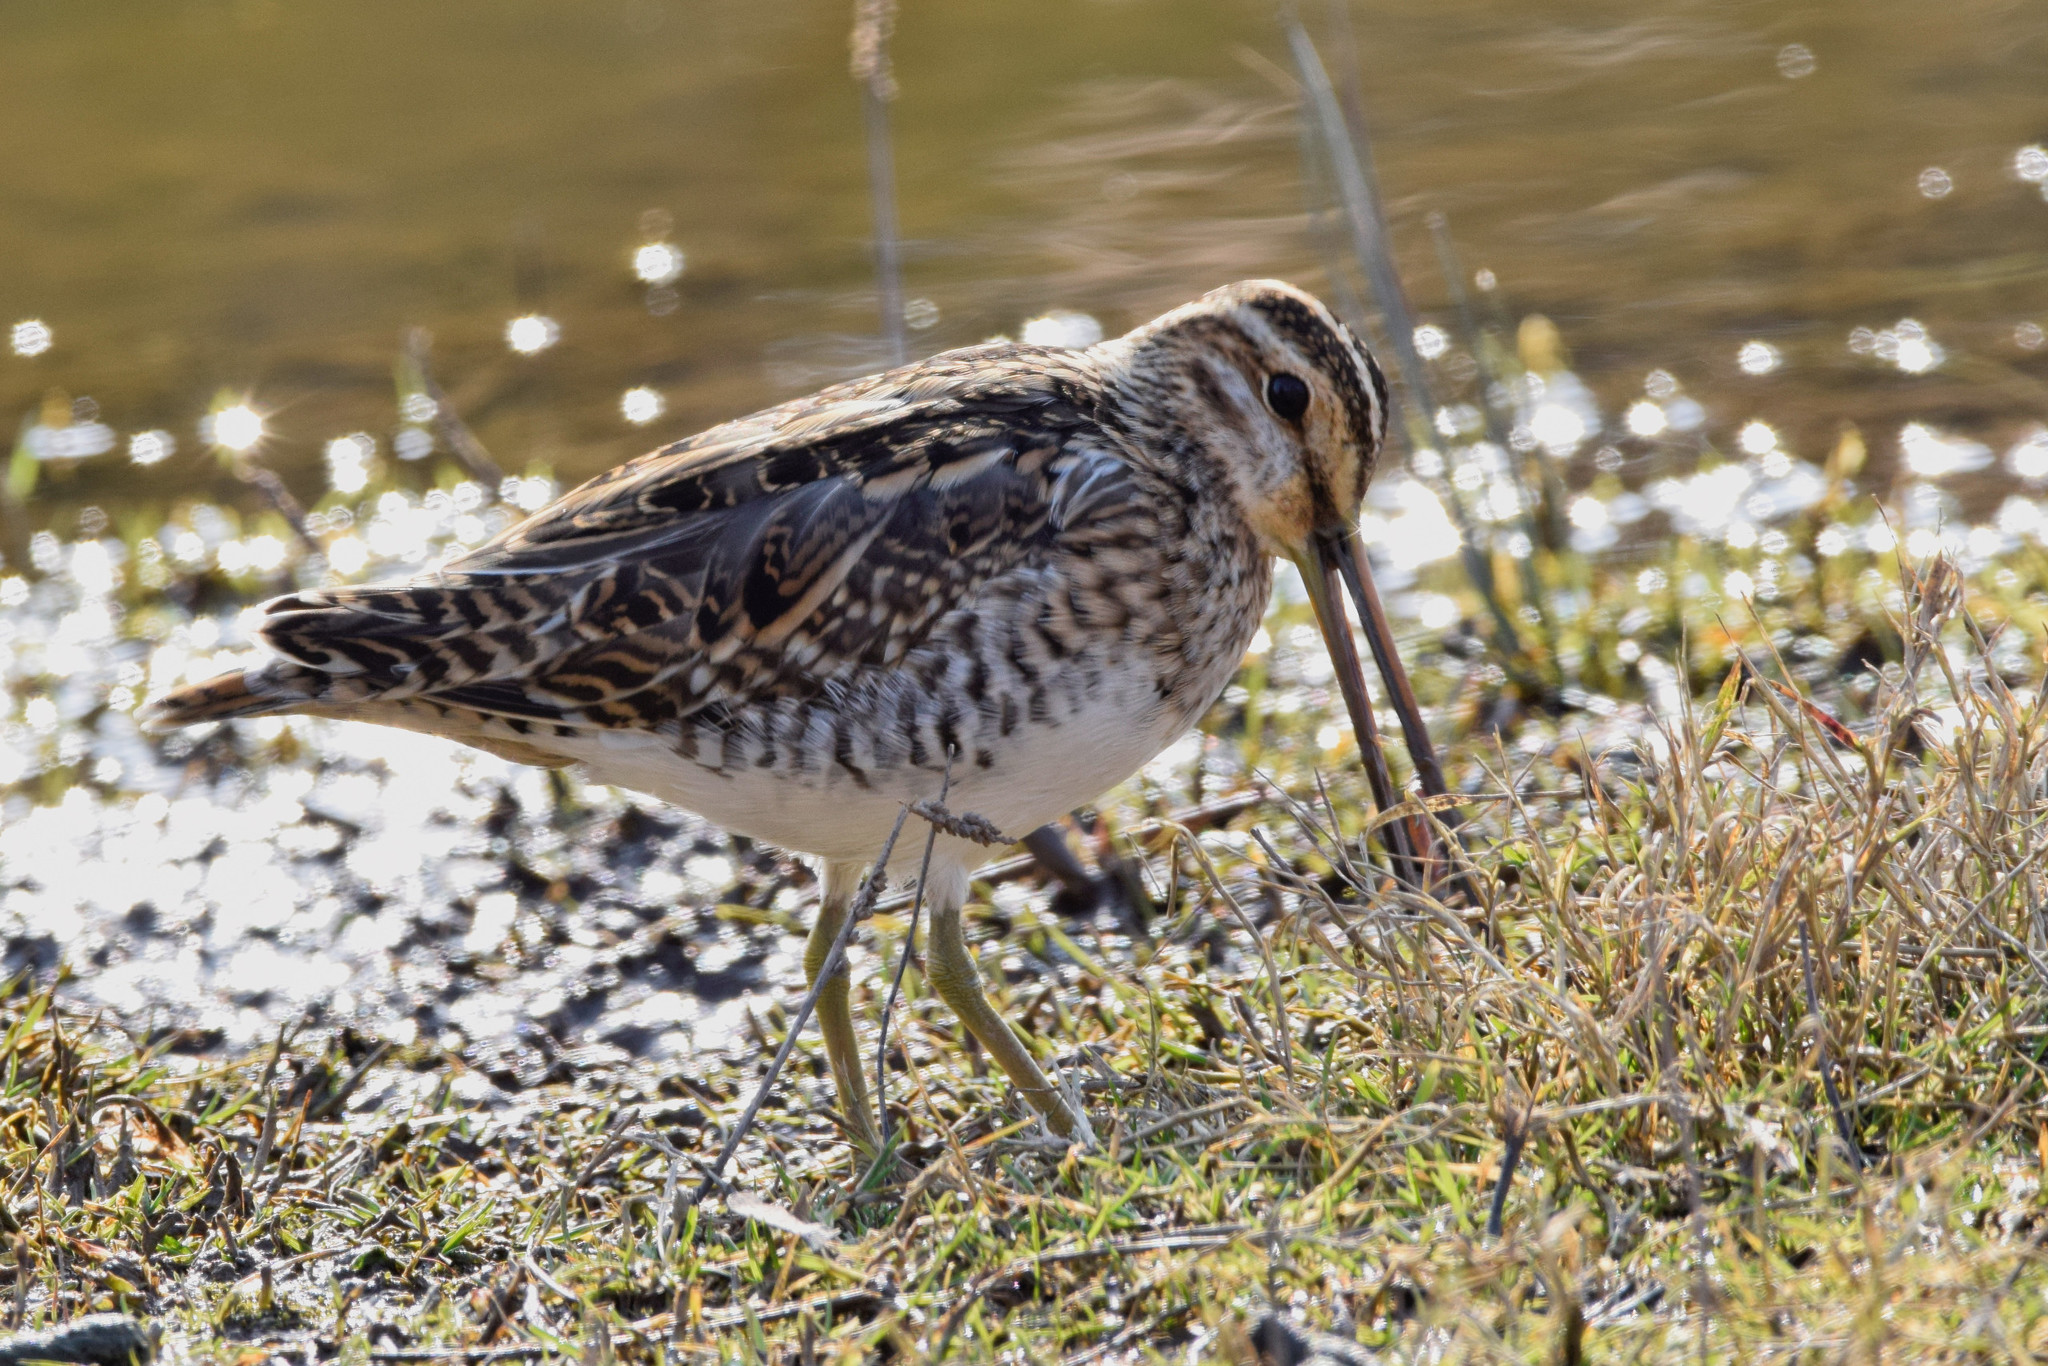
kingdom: Animalia
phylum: Chordata
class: Aves
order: Charadriiformes
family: Scolopacidae
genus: Gallinago
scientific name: Gallinago gallinago
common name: Common snipe
